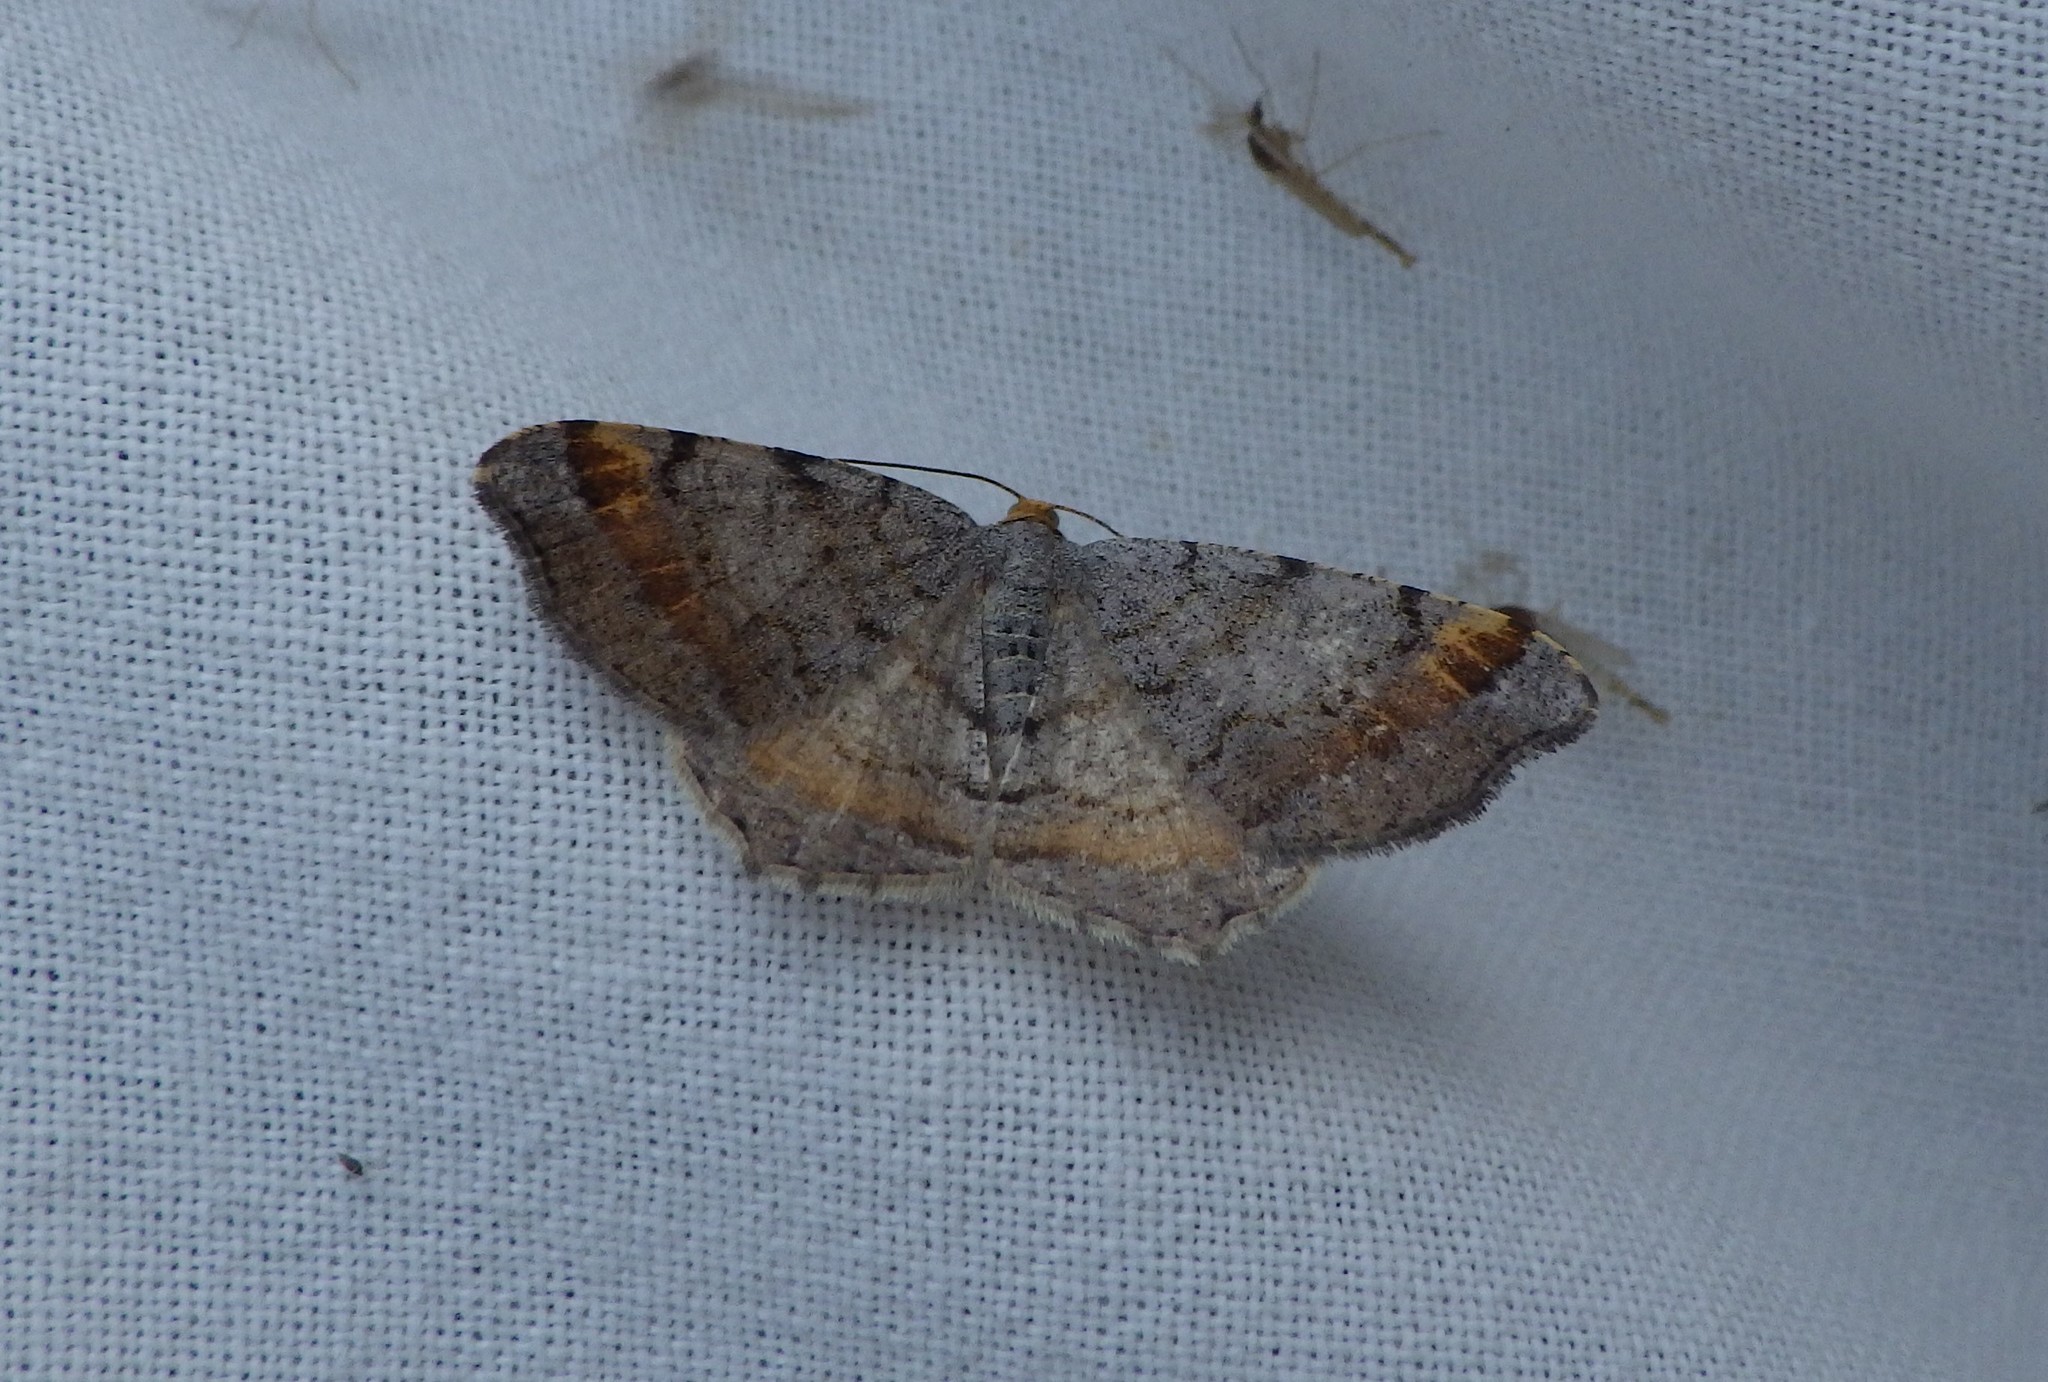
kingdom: Animalia
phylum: Arthropoda
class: Insecta
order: Lepidoptera
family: Geometridae
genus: Macaria
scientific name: Macaria liturata
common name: Tawny-barred angle
